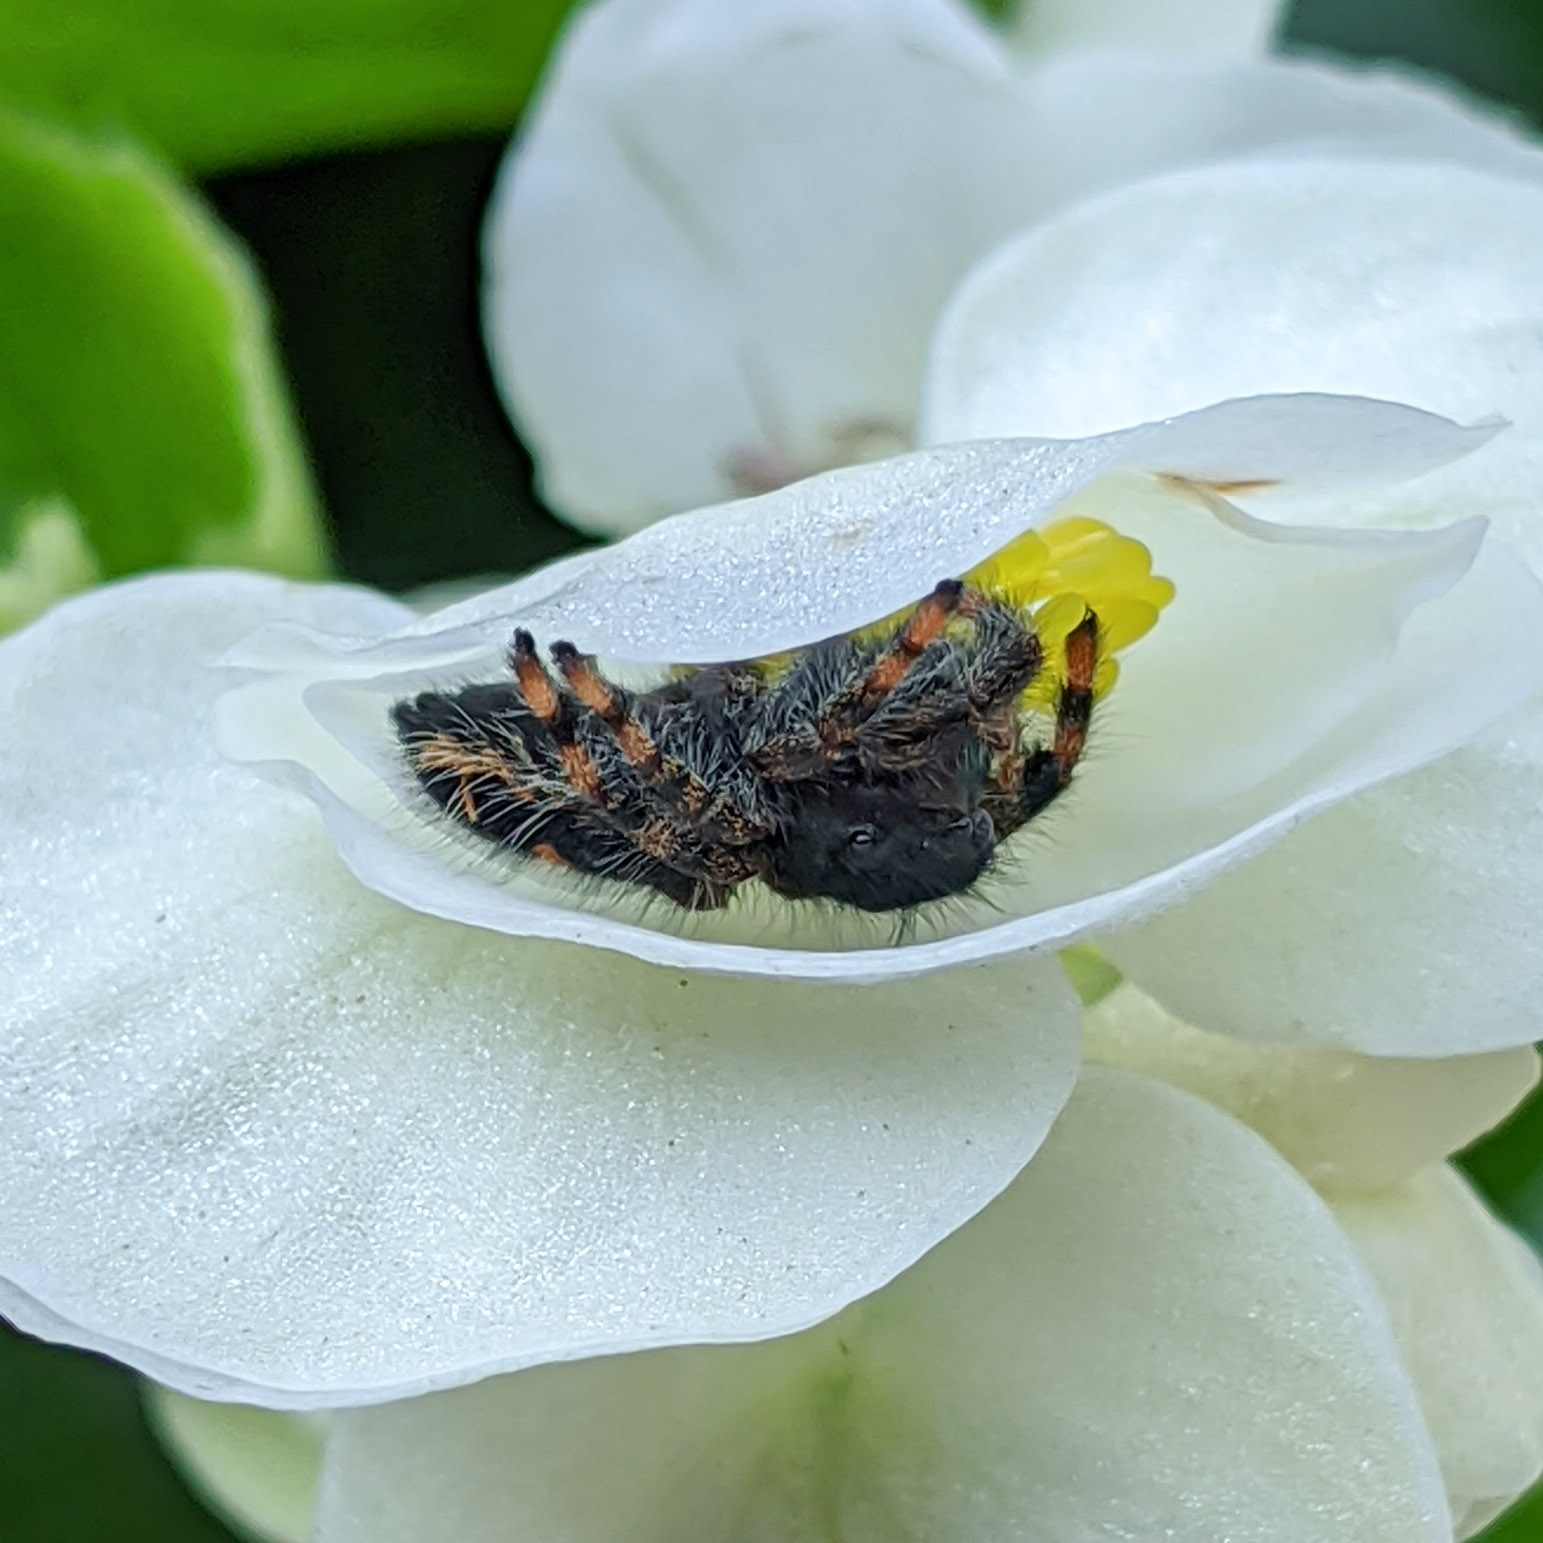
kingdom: Animalia
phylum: Arthropoda
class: Arachnida
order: Araneae
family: Salticidae
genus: Phidippus
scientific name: Phidippus audax
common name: Bold jumper
